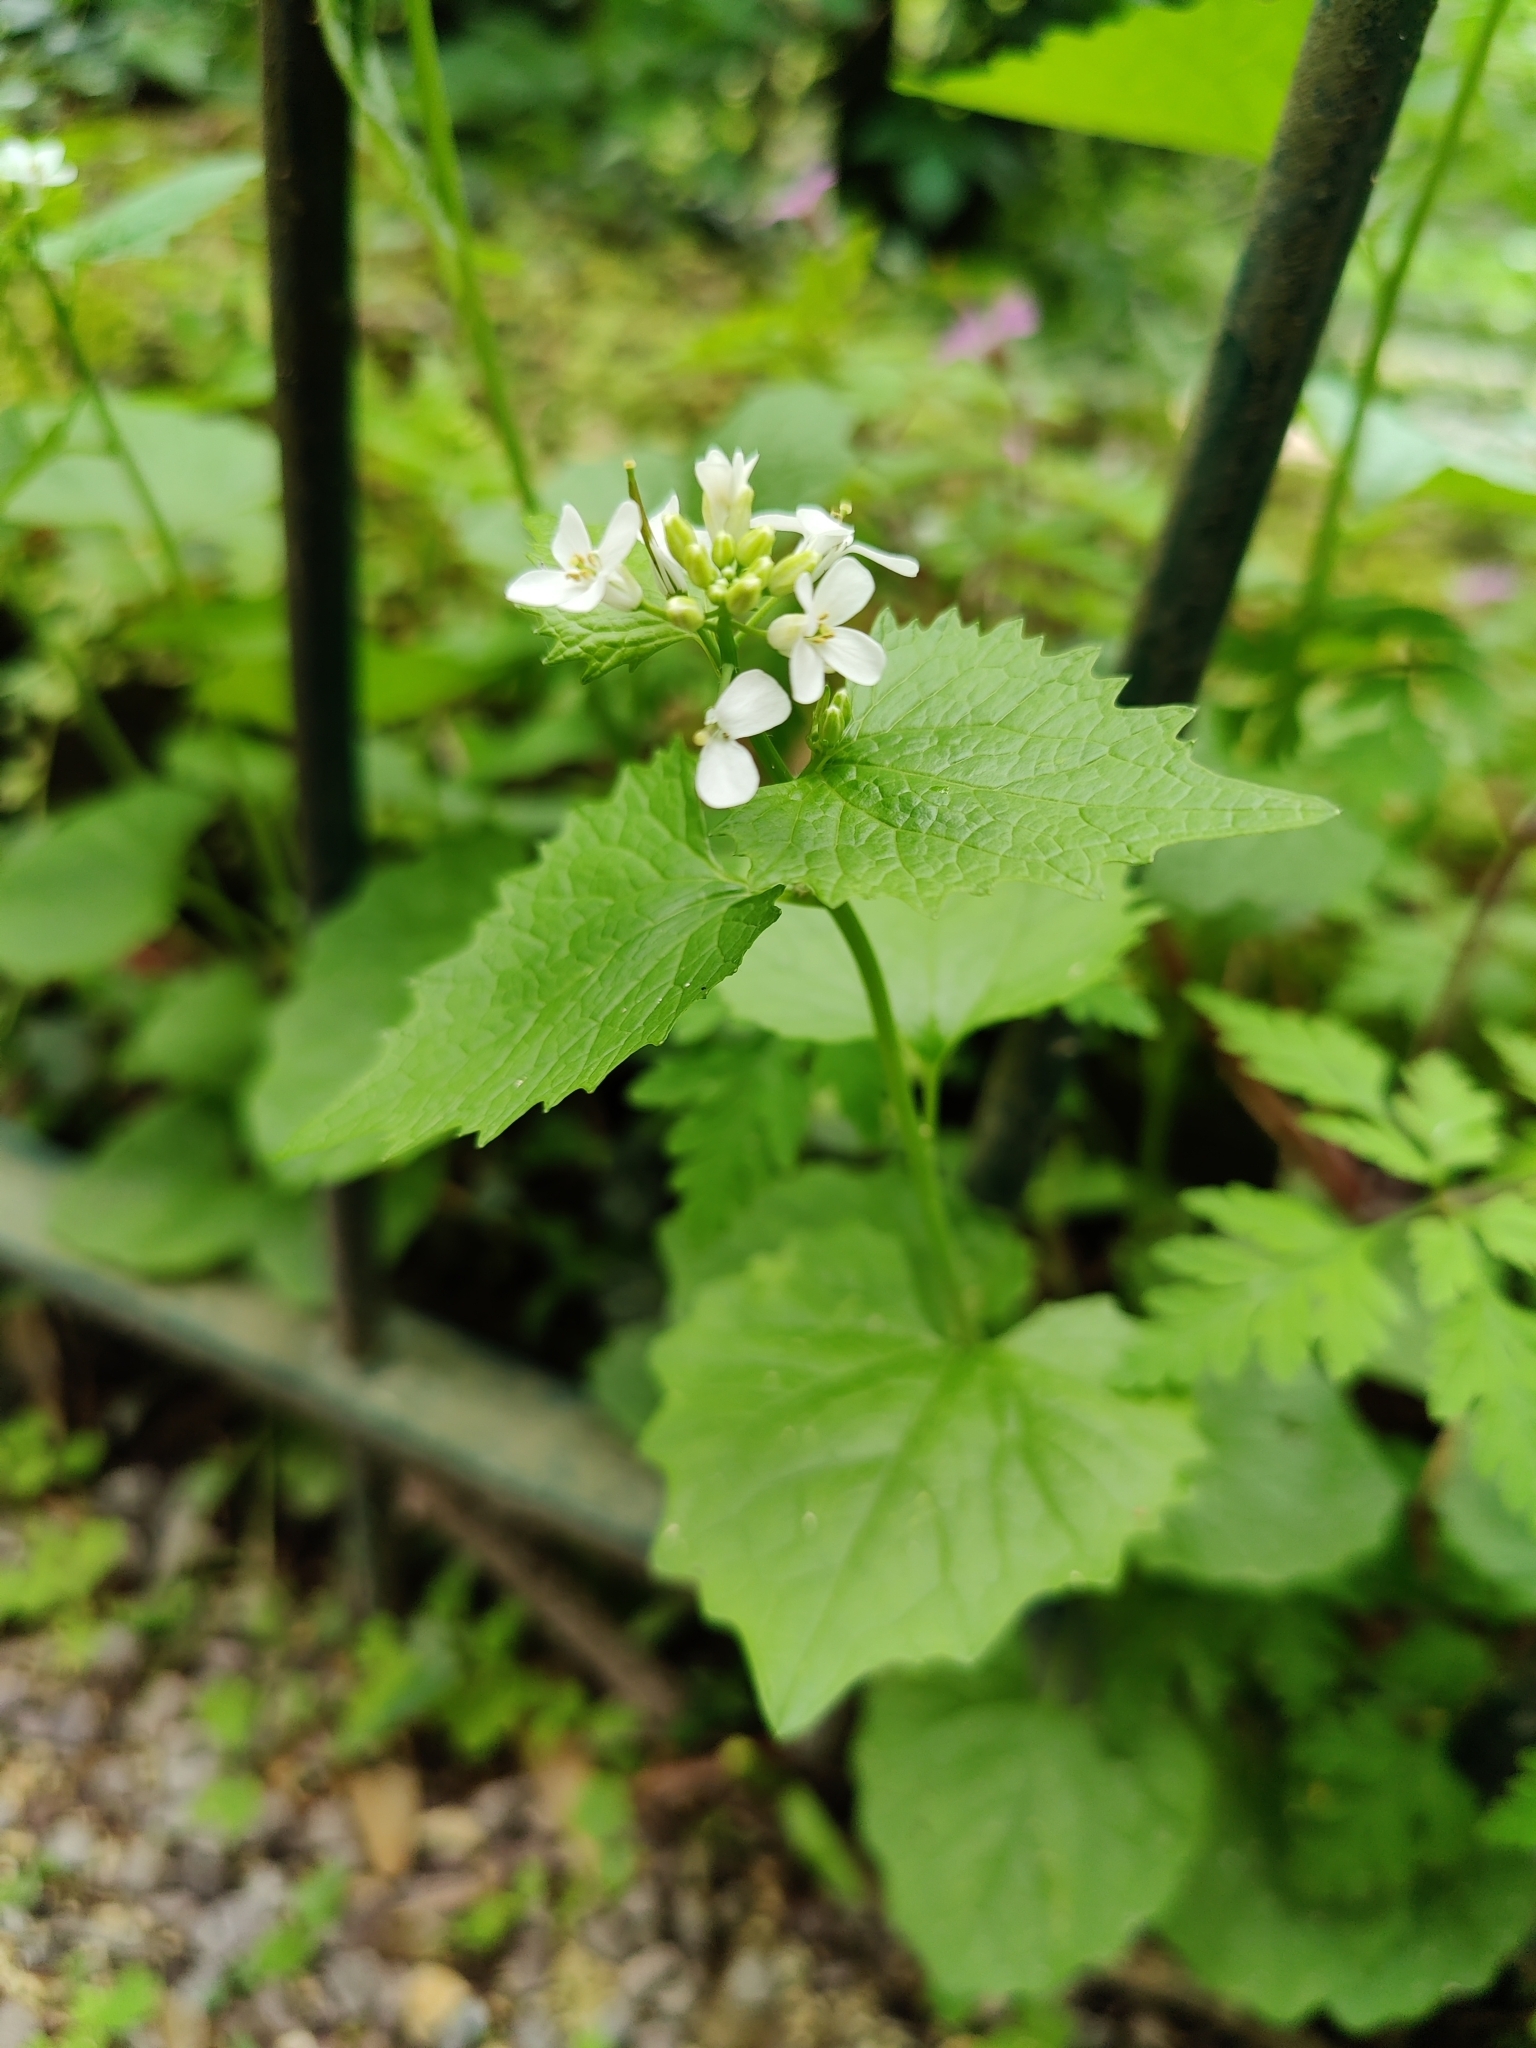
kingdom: Plantae
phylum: Tracheophyta
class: Magnoliopsida
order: Brassicales
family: Brassicaceae
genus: Alliaria
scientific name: Alliaria petiolata
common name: Garlic mustard
